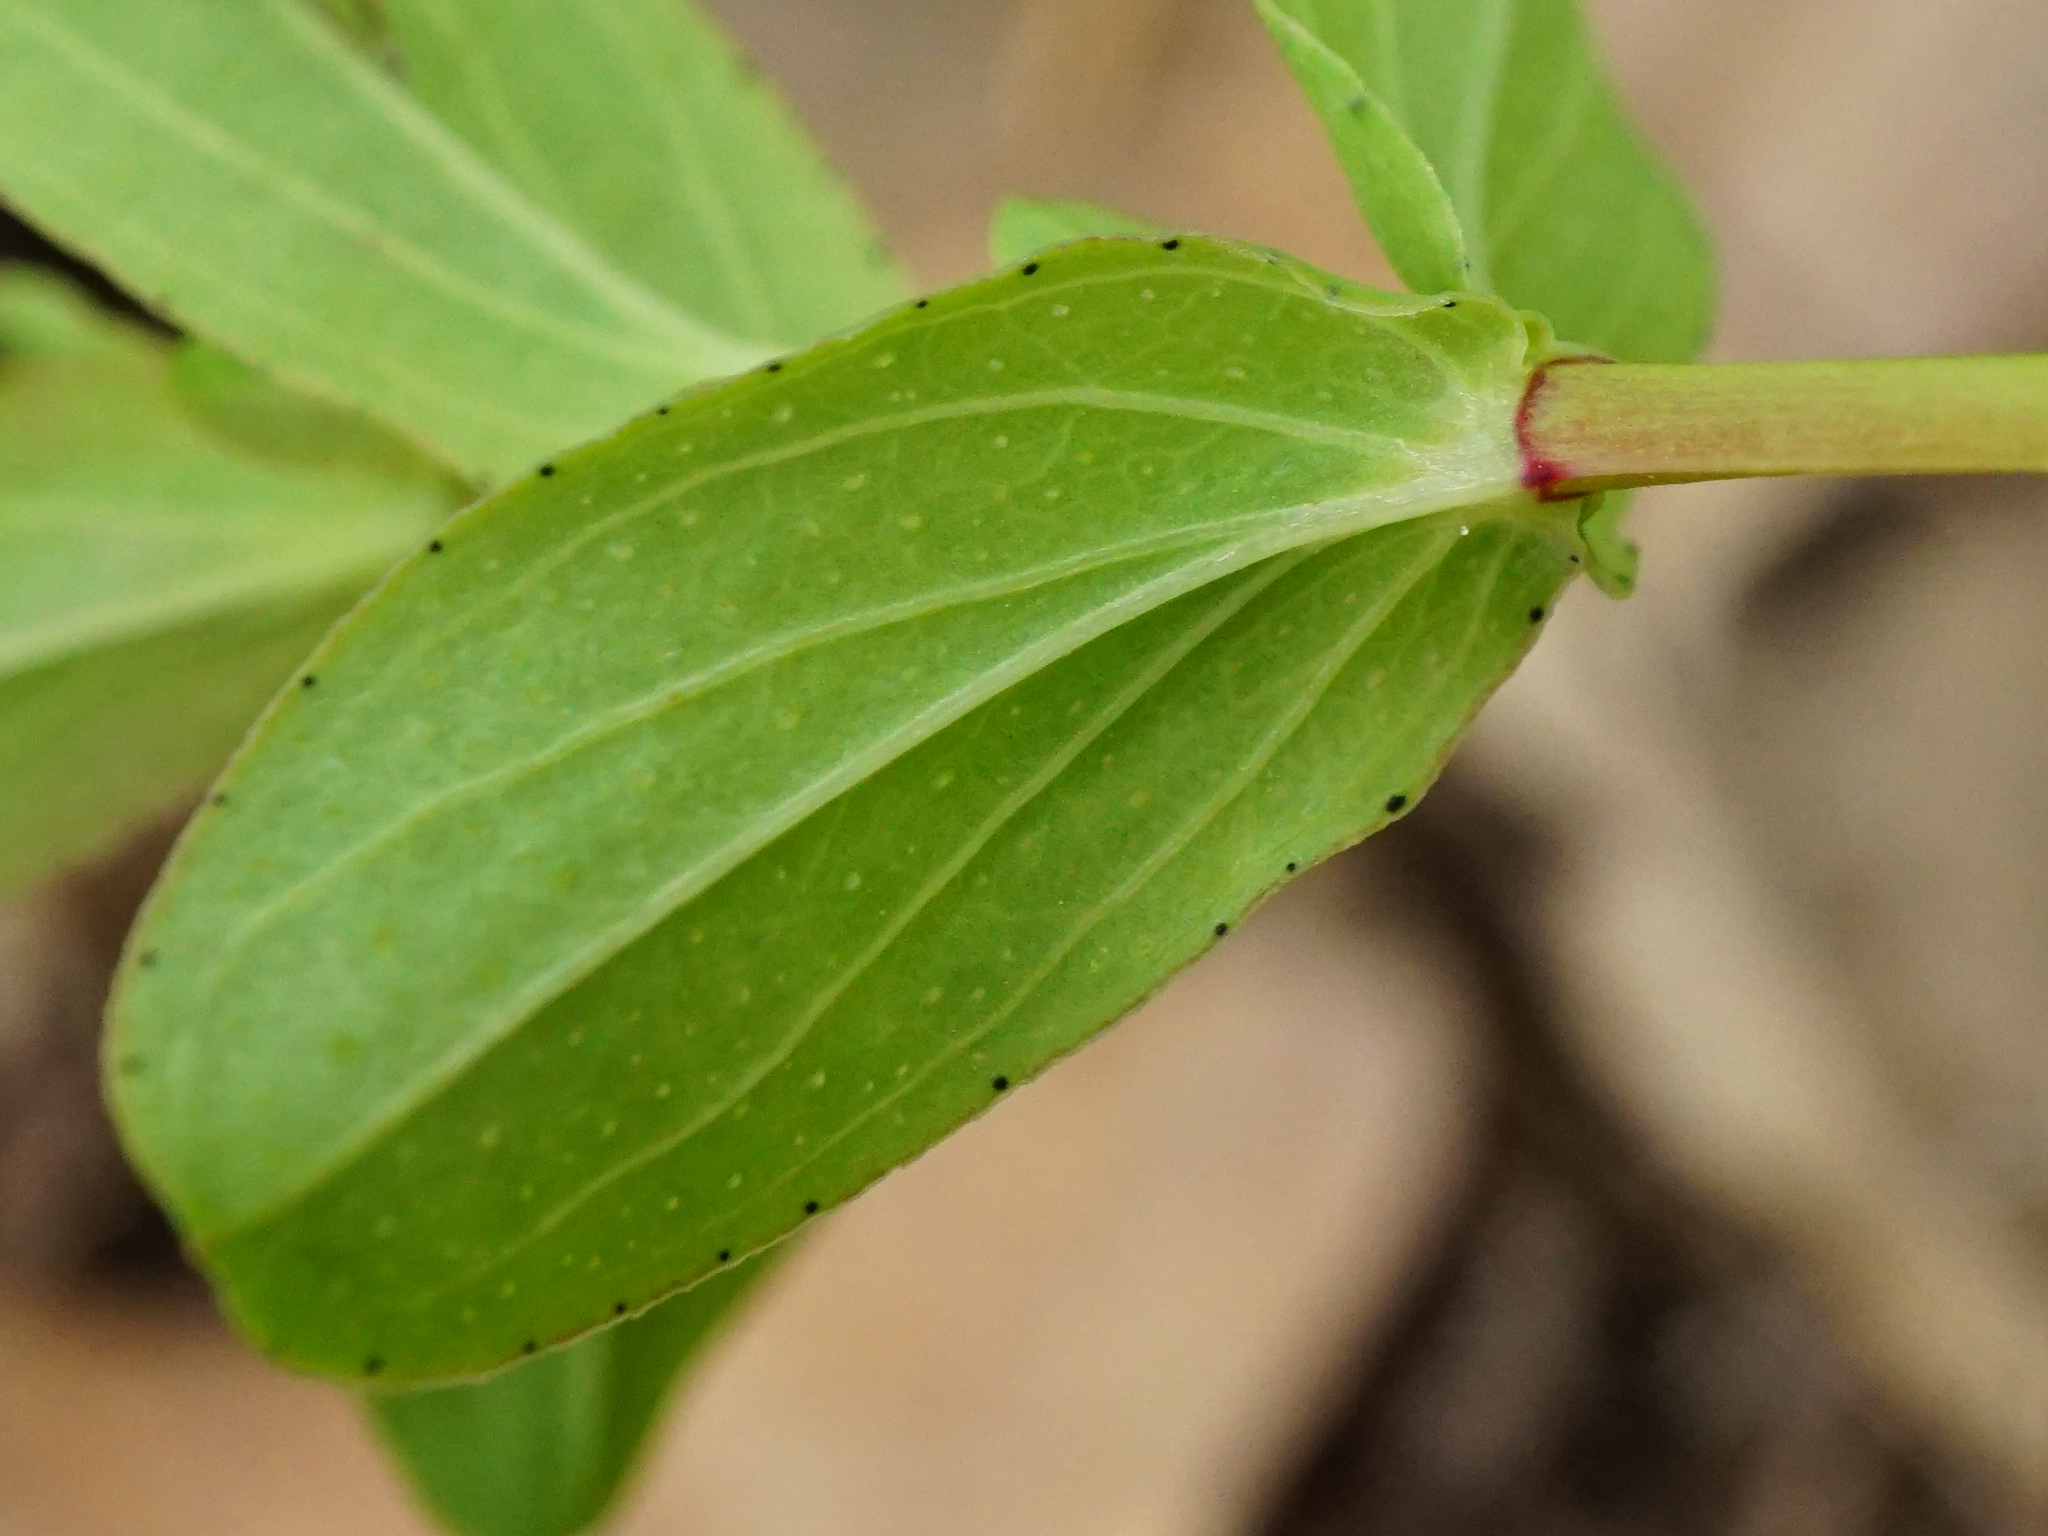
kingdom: Plantae
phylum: Tracheophyta
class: Magnoliopsida
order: Malpighiales
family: Hypericaceae
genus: Hypericum
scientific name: Hypericum perforatum
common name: Common st. johnswort
